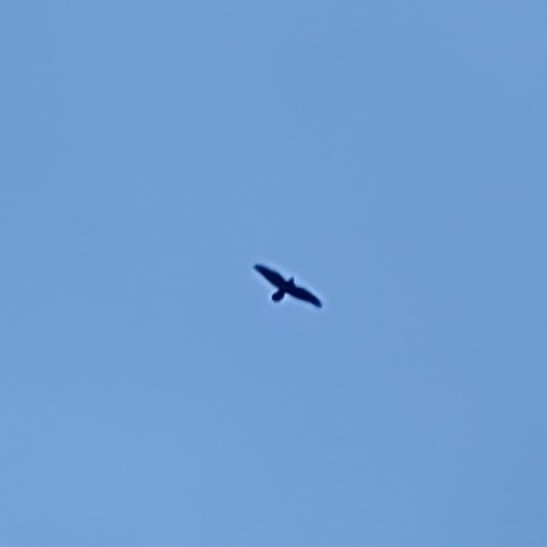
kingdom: Animalia
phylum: Chordata
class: Aves
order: Passeriformes
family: Corvidae
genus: Corvus
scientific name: Corvus corax
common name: Common raven
